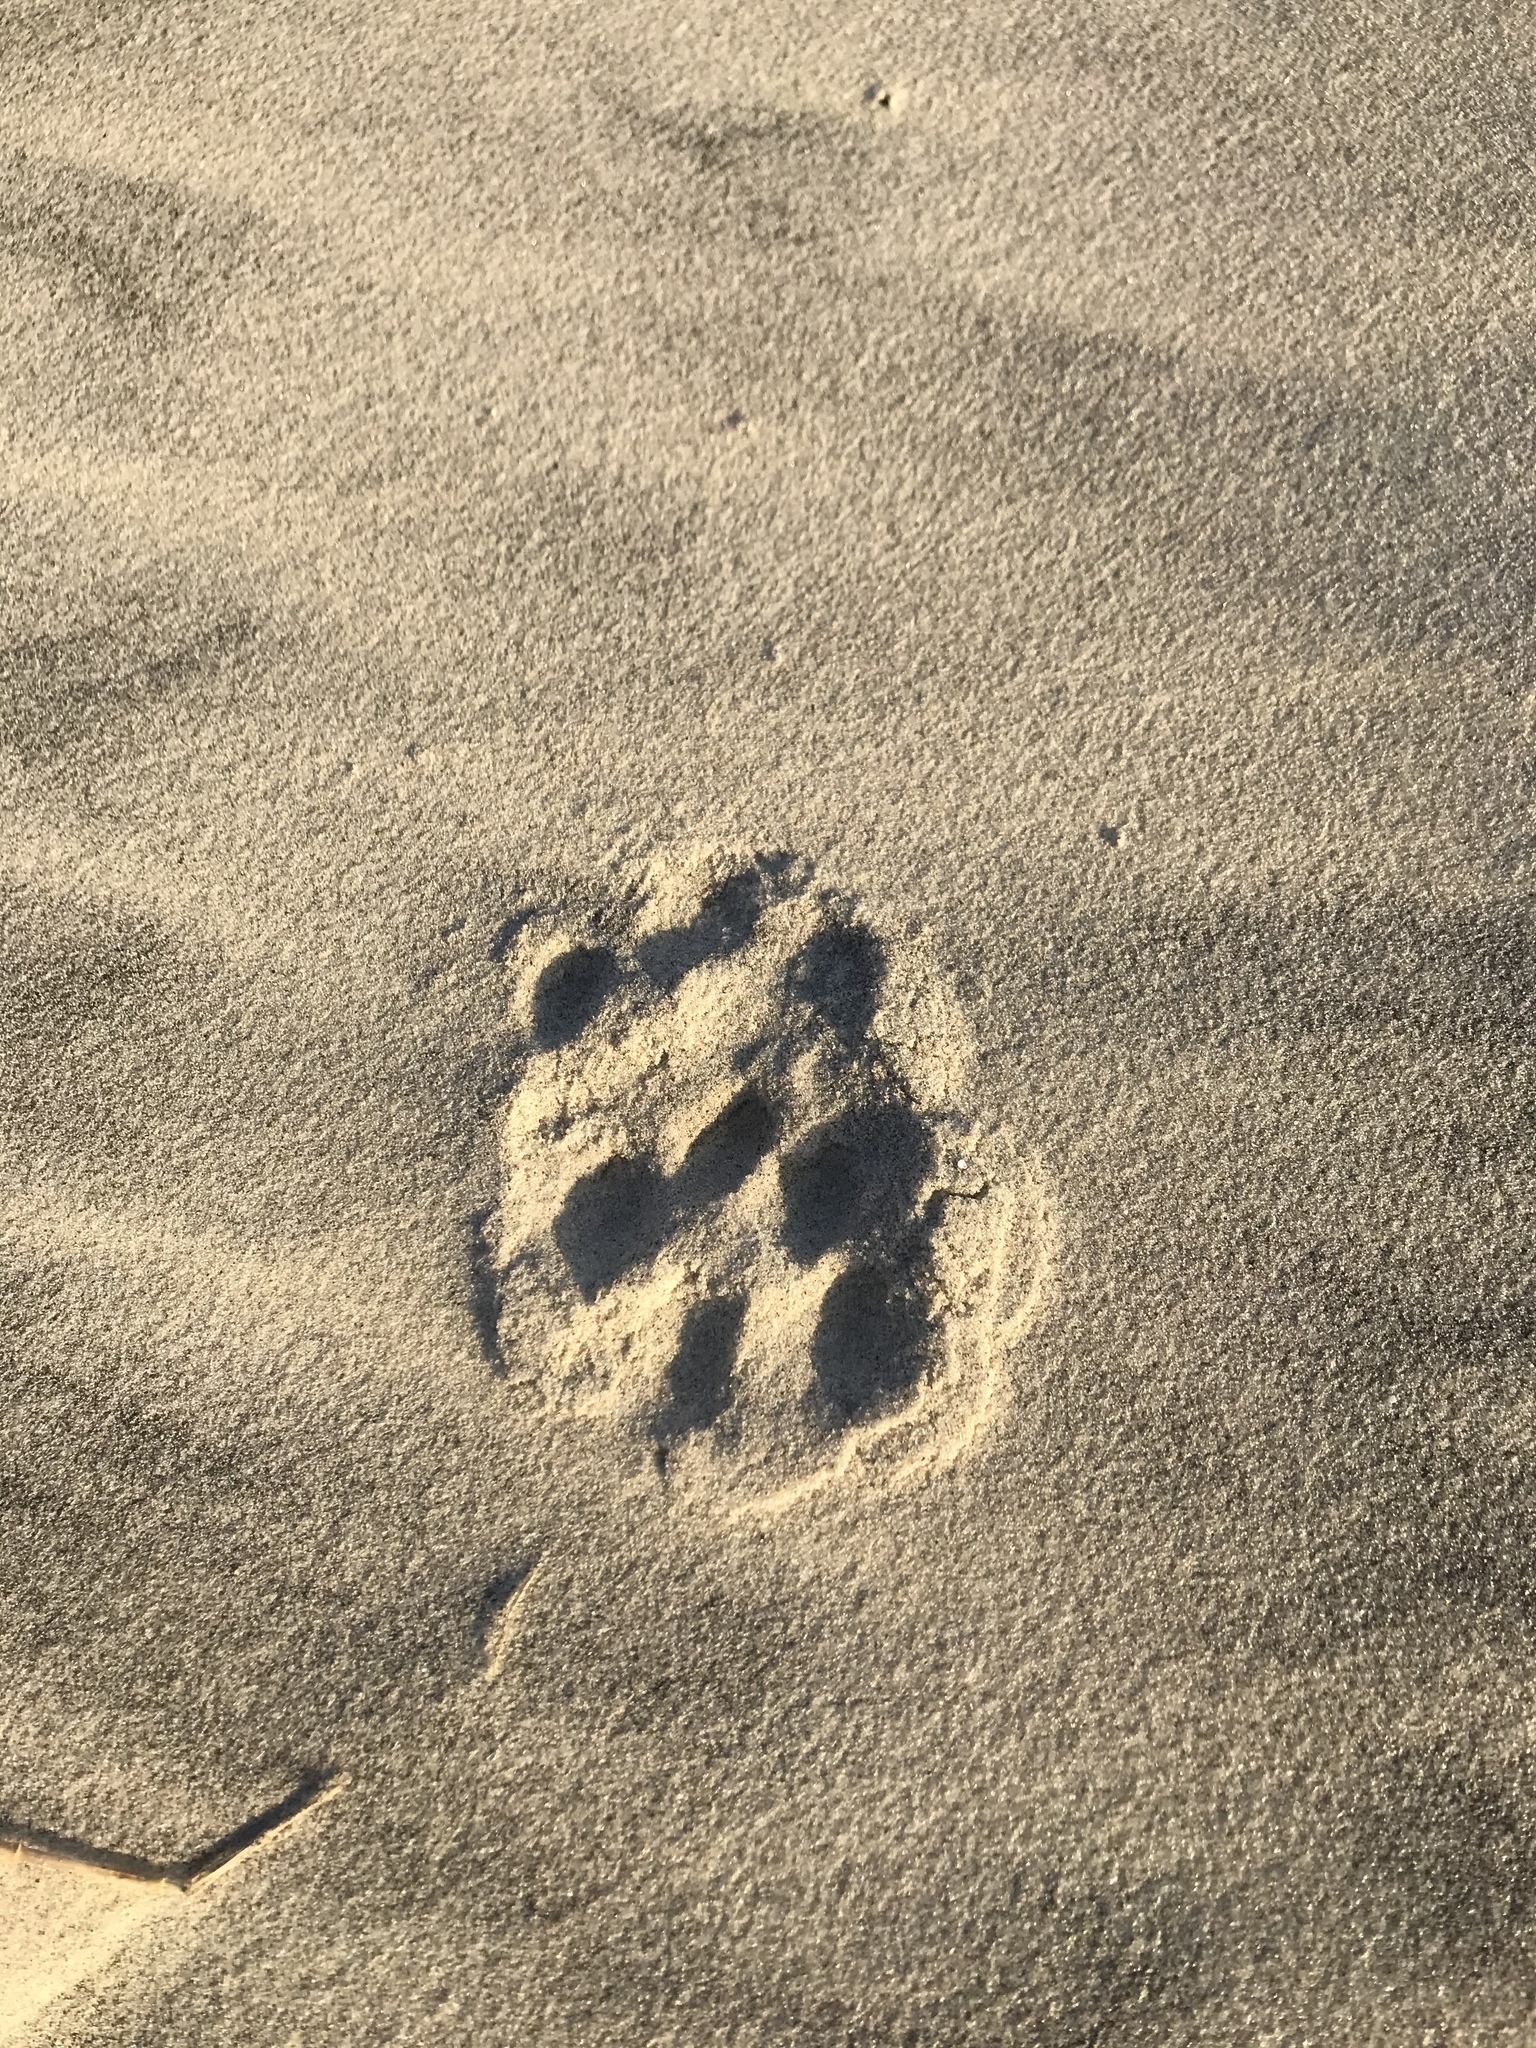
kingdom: Animalia
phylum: Chordata
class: Mammalia
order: Carnivora
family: Felidae
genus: Lynx
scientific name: Lynx rufus
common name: Bobcat
